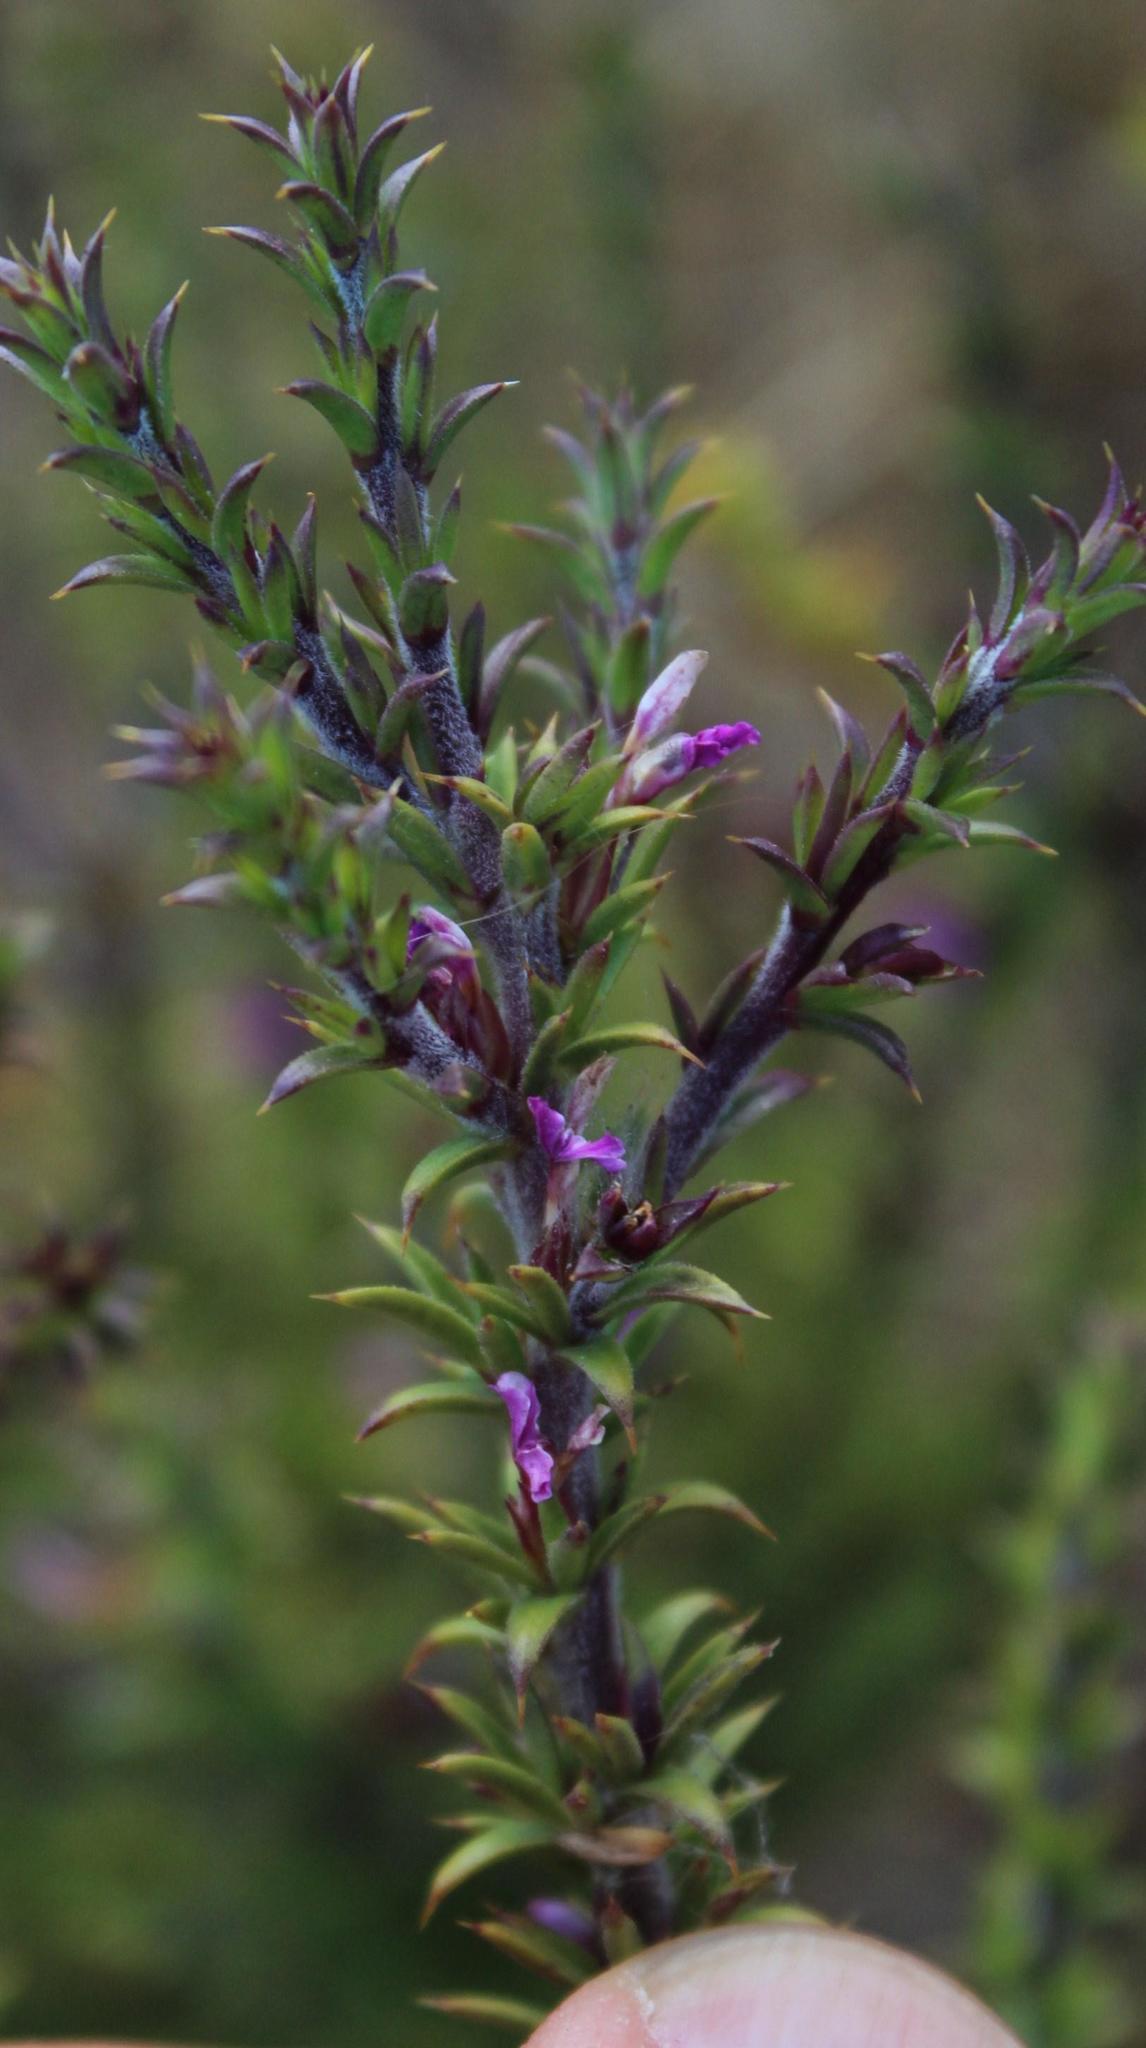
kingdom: Plantae
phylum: Tracheophyta
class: Magnoliopsida
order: Fabales
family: Polygalaceae
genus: Muraltia
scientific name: Muraltia heisteria
